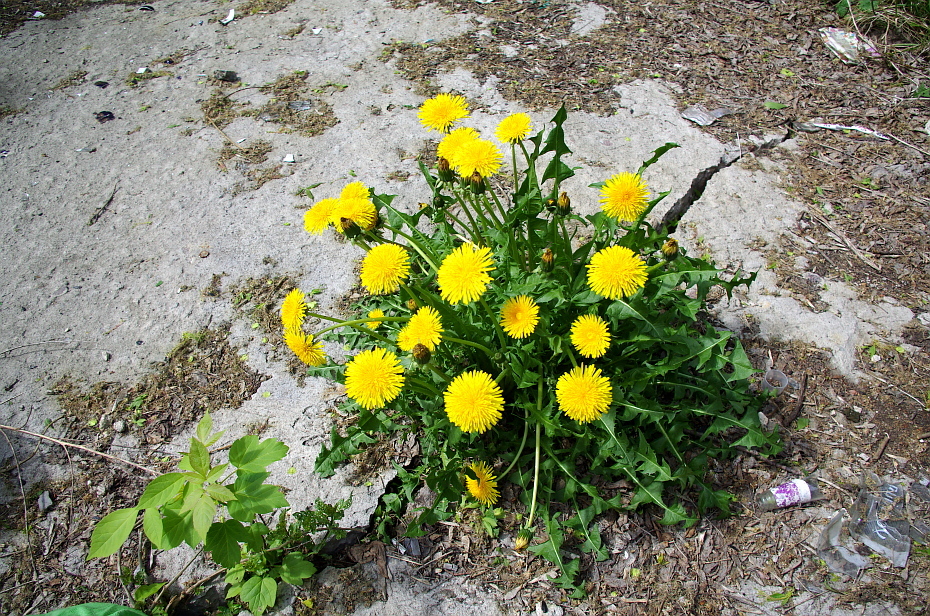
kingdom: Plantae
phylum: Tracheophyta
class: Magnoliopsida
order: Asterales
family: Asteraceae
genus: Taraxacum
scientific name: Taraxacum officinale
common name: Common dandelion
